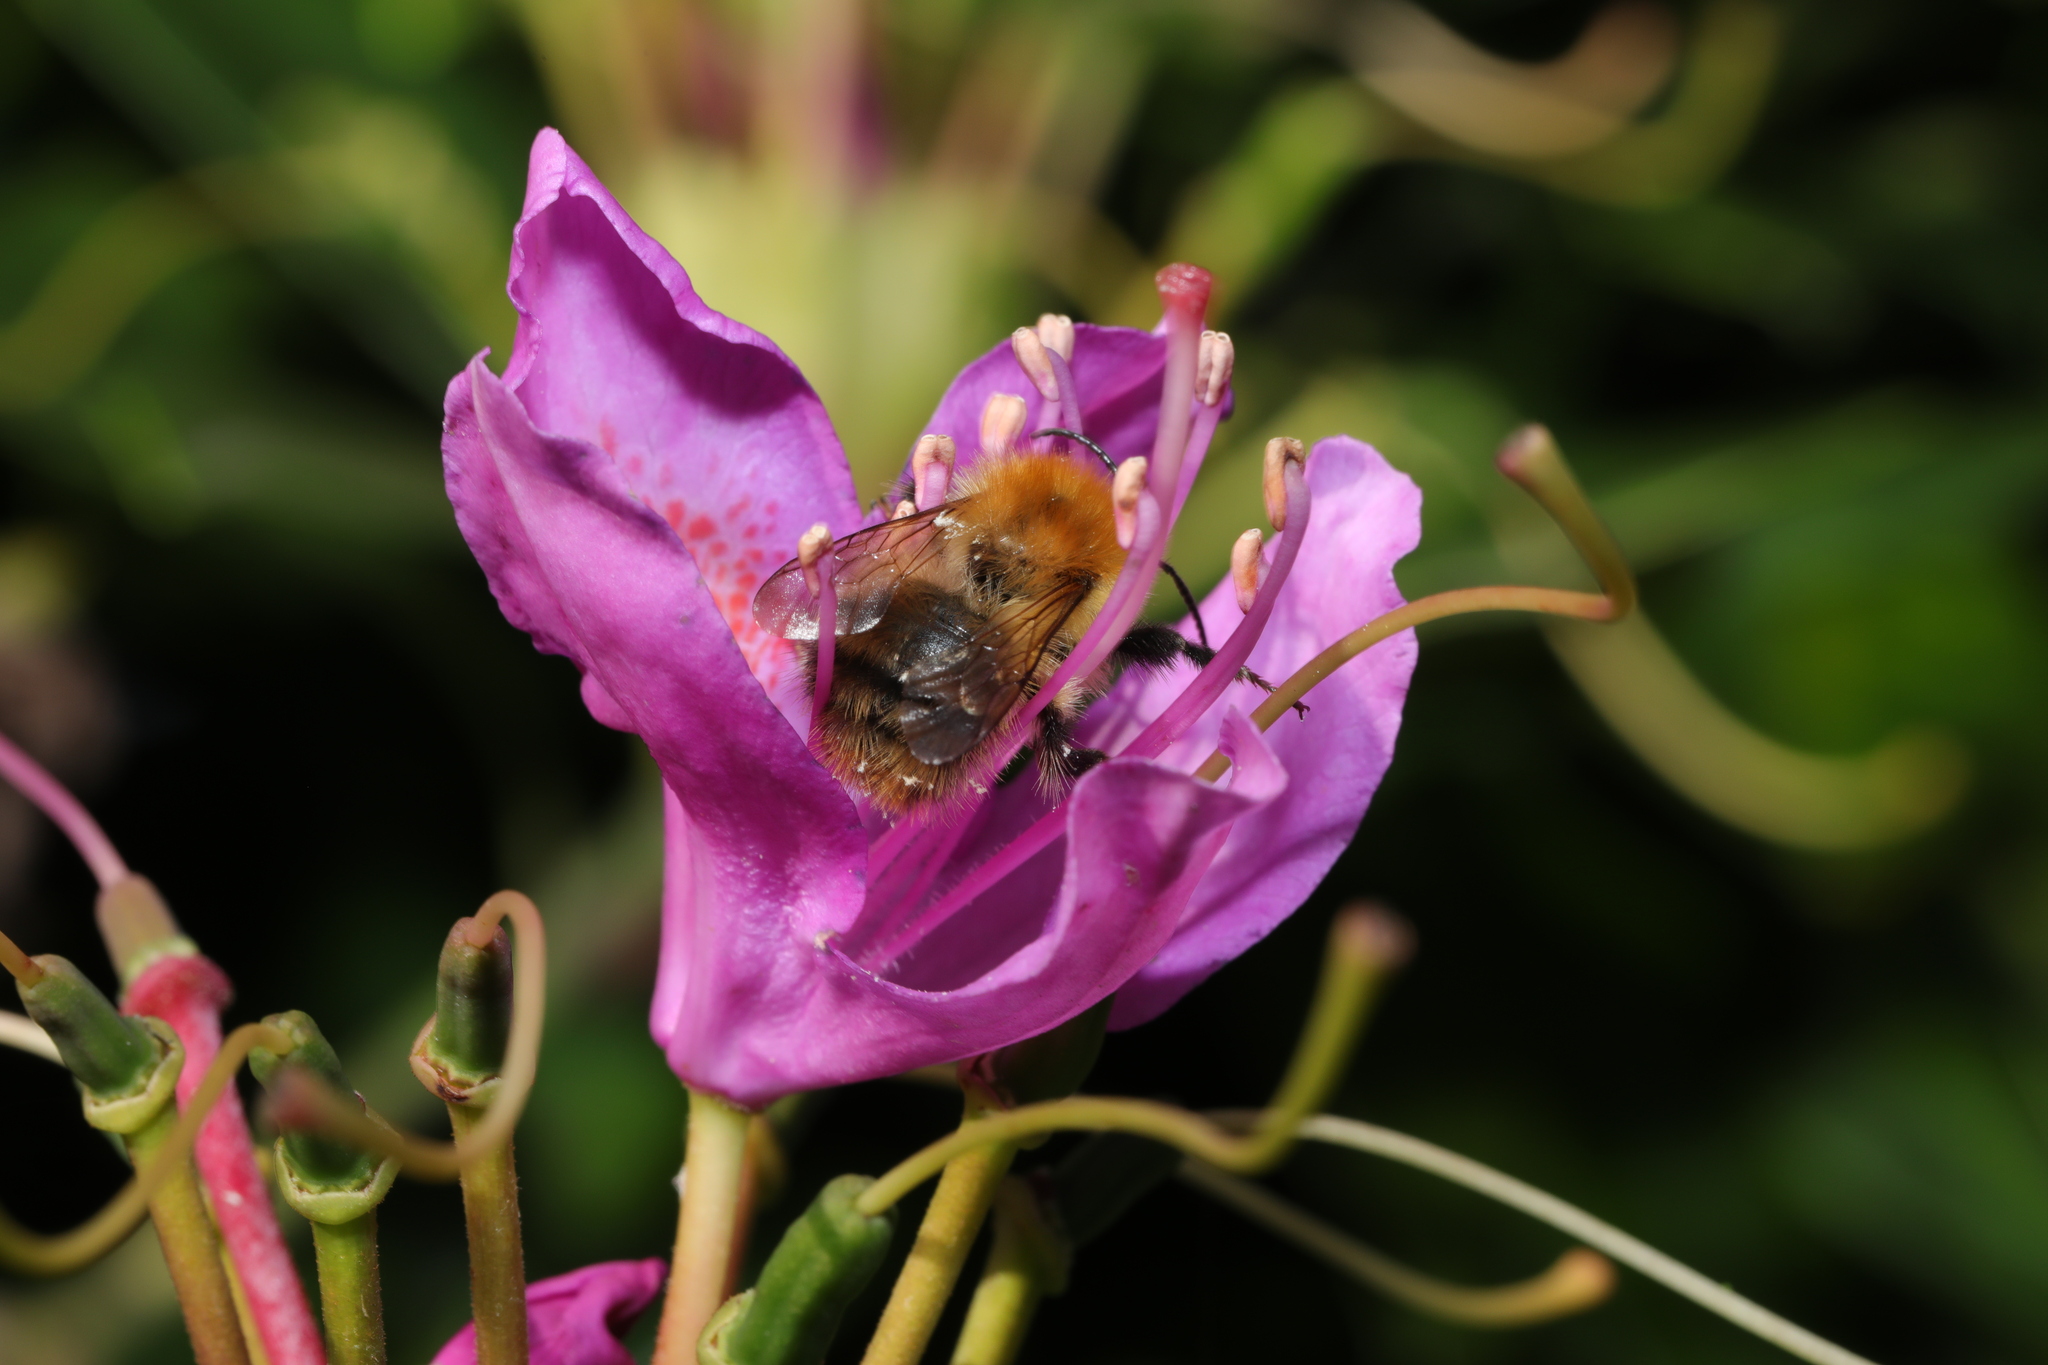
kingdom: Animalia
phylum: Arthropoda
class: Insecta
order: Hymenoptera
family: Apidae
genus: Bombus
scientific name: Bombus pascuorum
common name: Common carder bee
